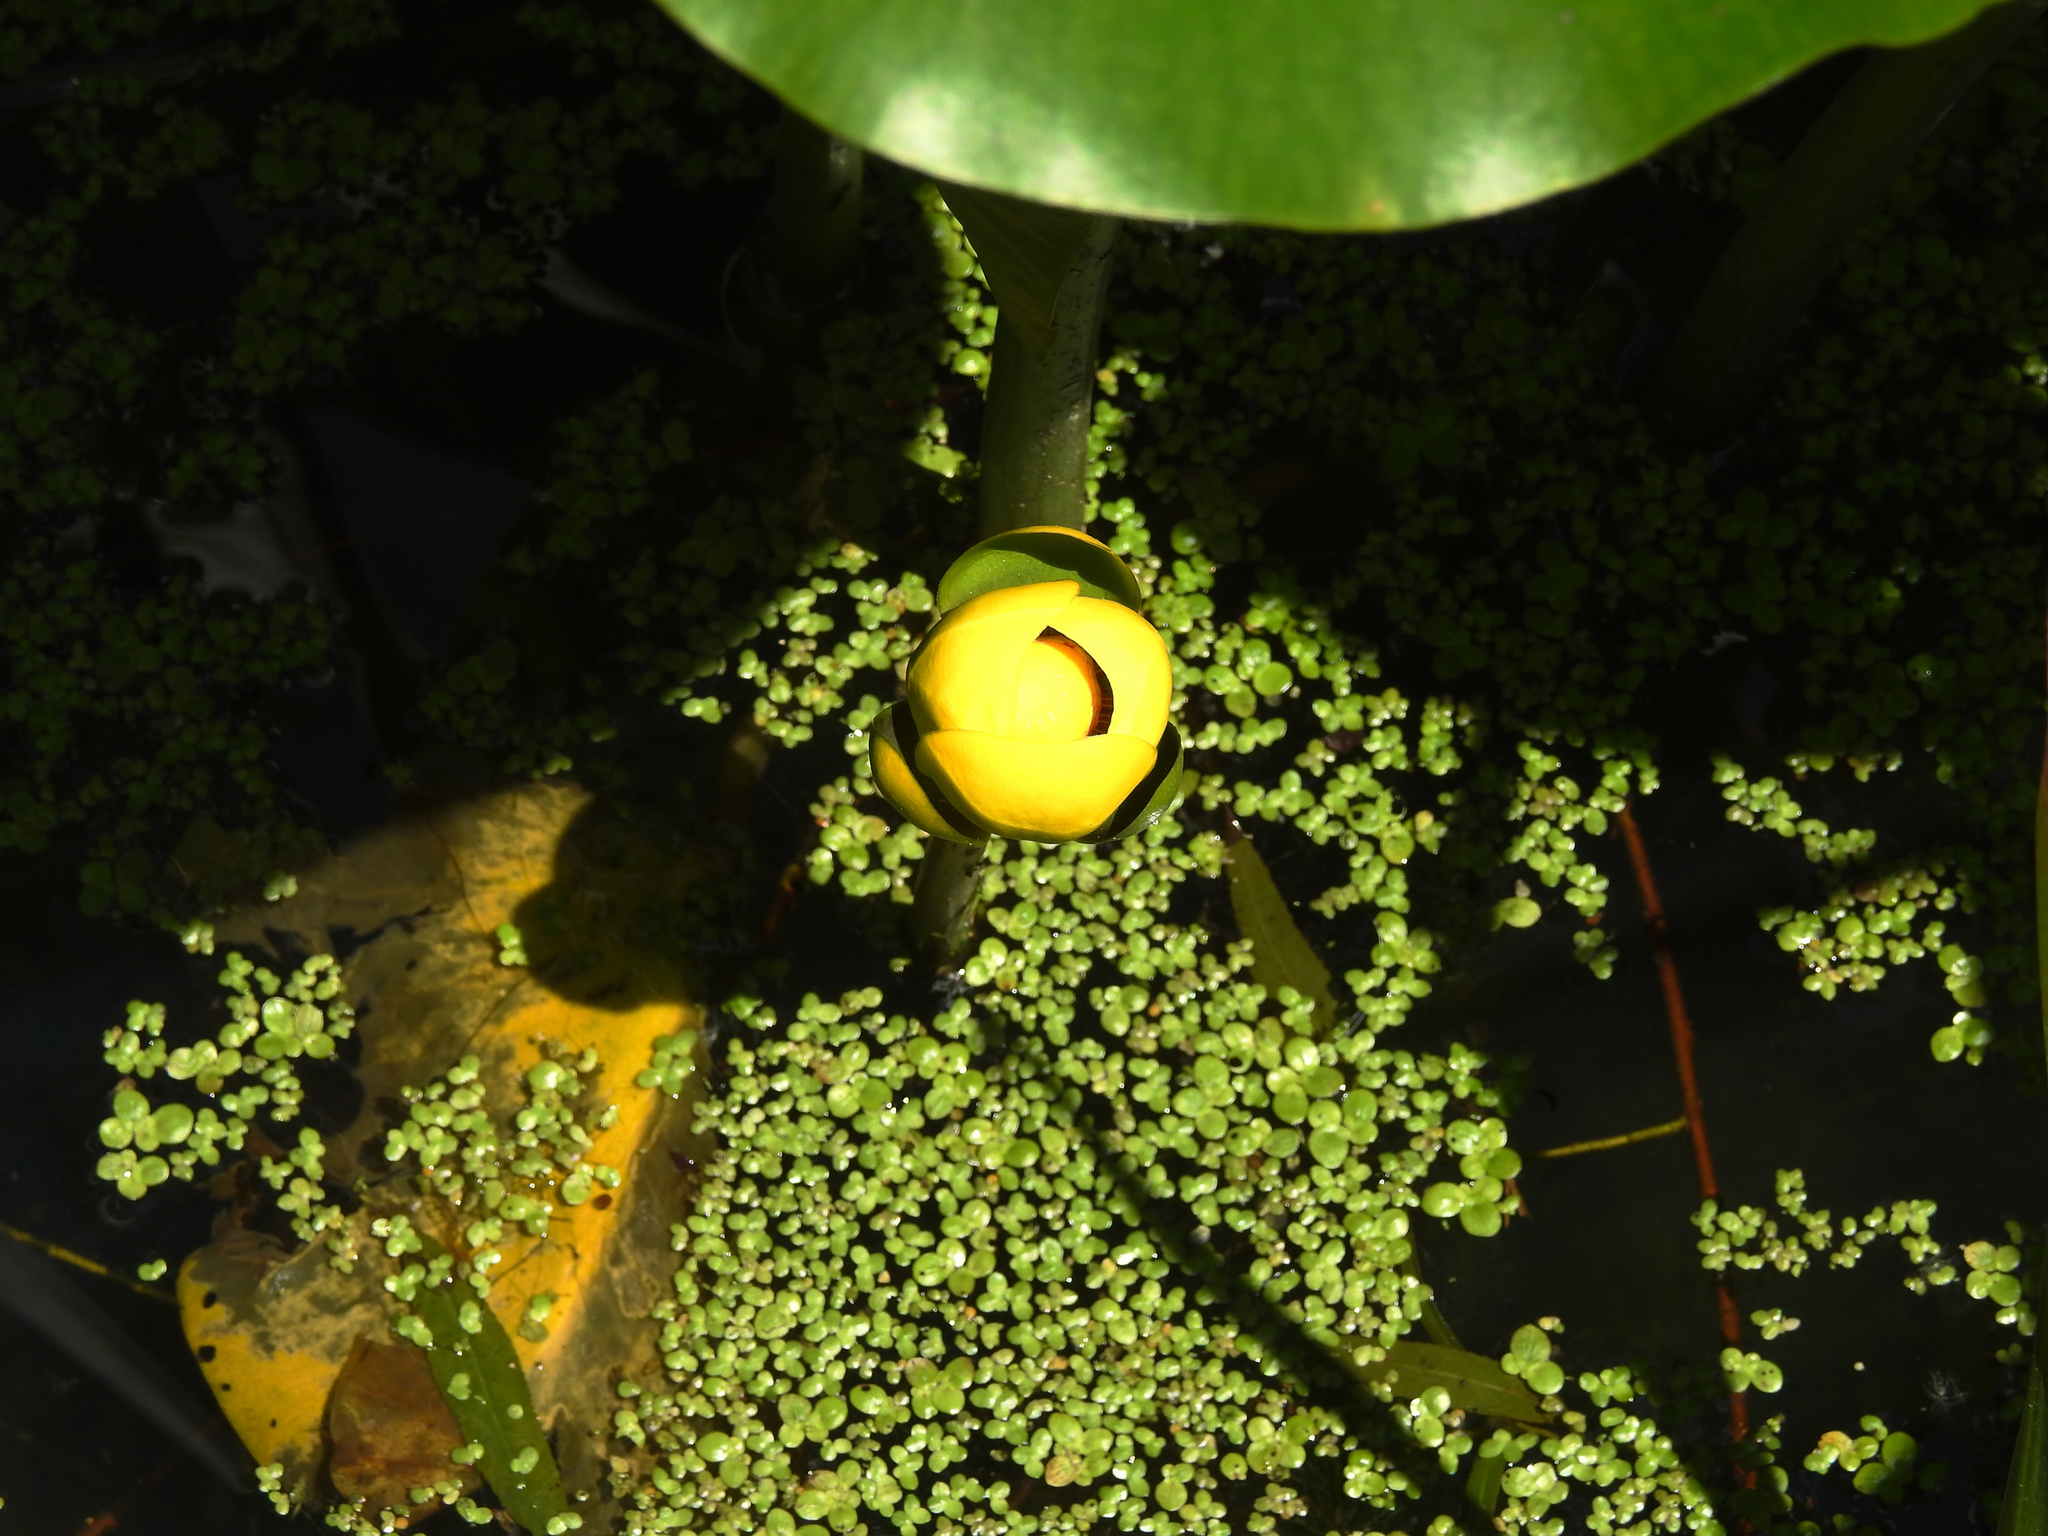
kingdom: Plantae
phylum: Tracheophyta
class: Magnoliopsida
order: Nymphaeales
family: Nymphaeaceae
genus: Nuphar
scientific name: Nuphar advena
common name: Spatter-dock
